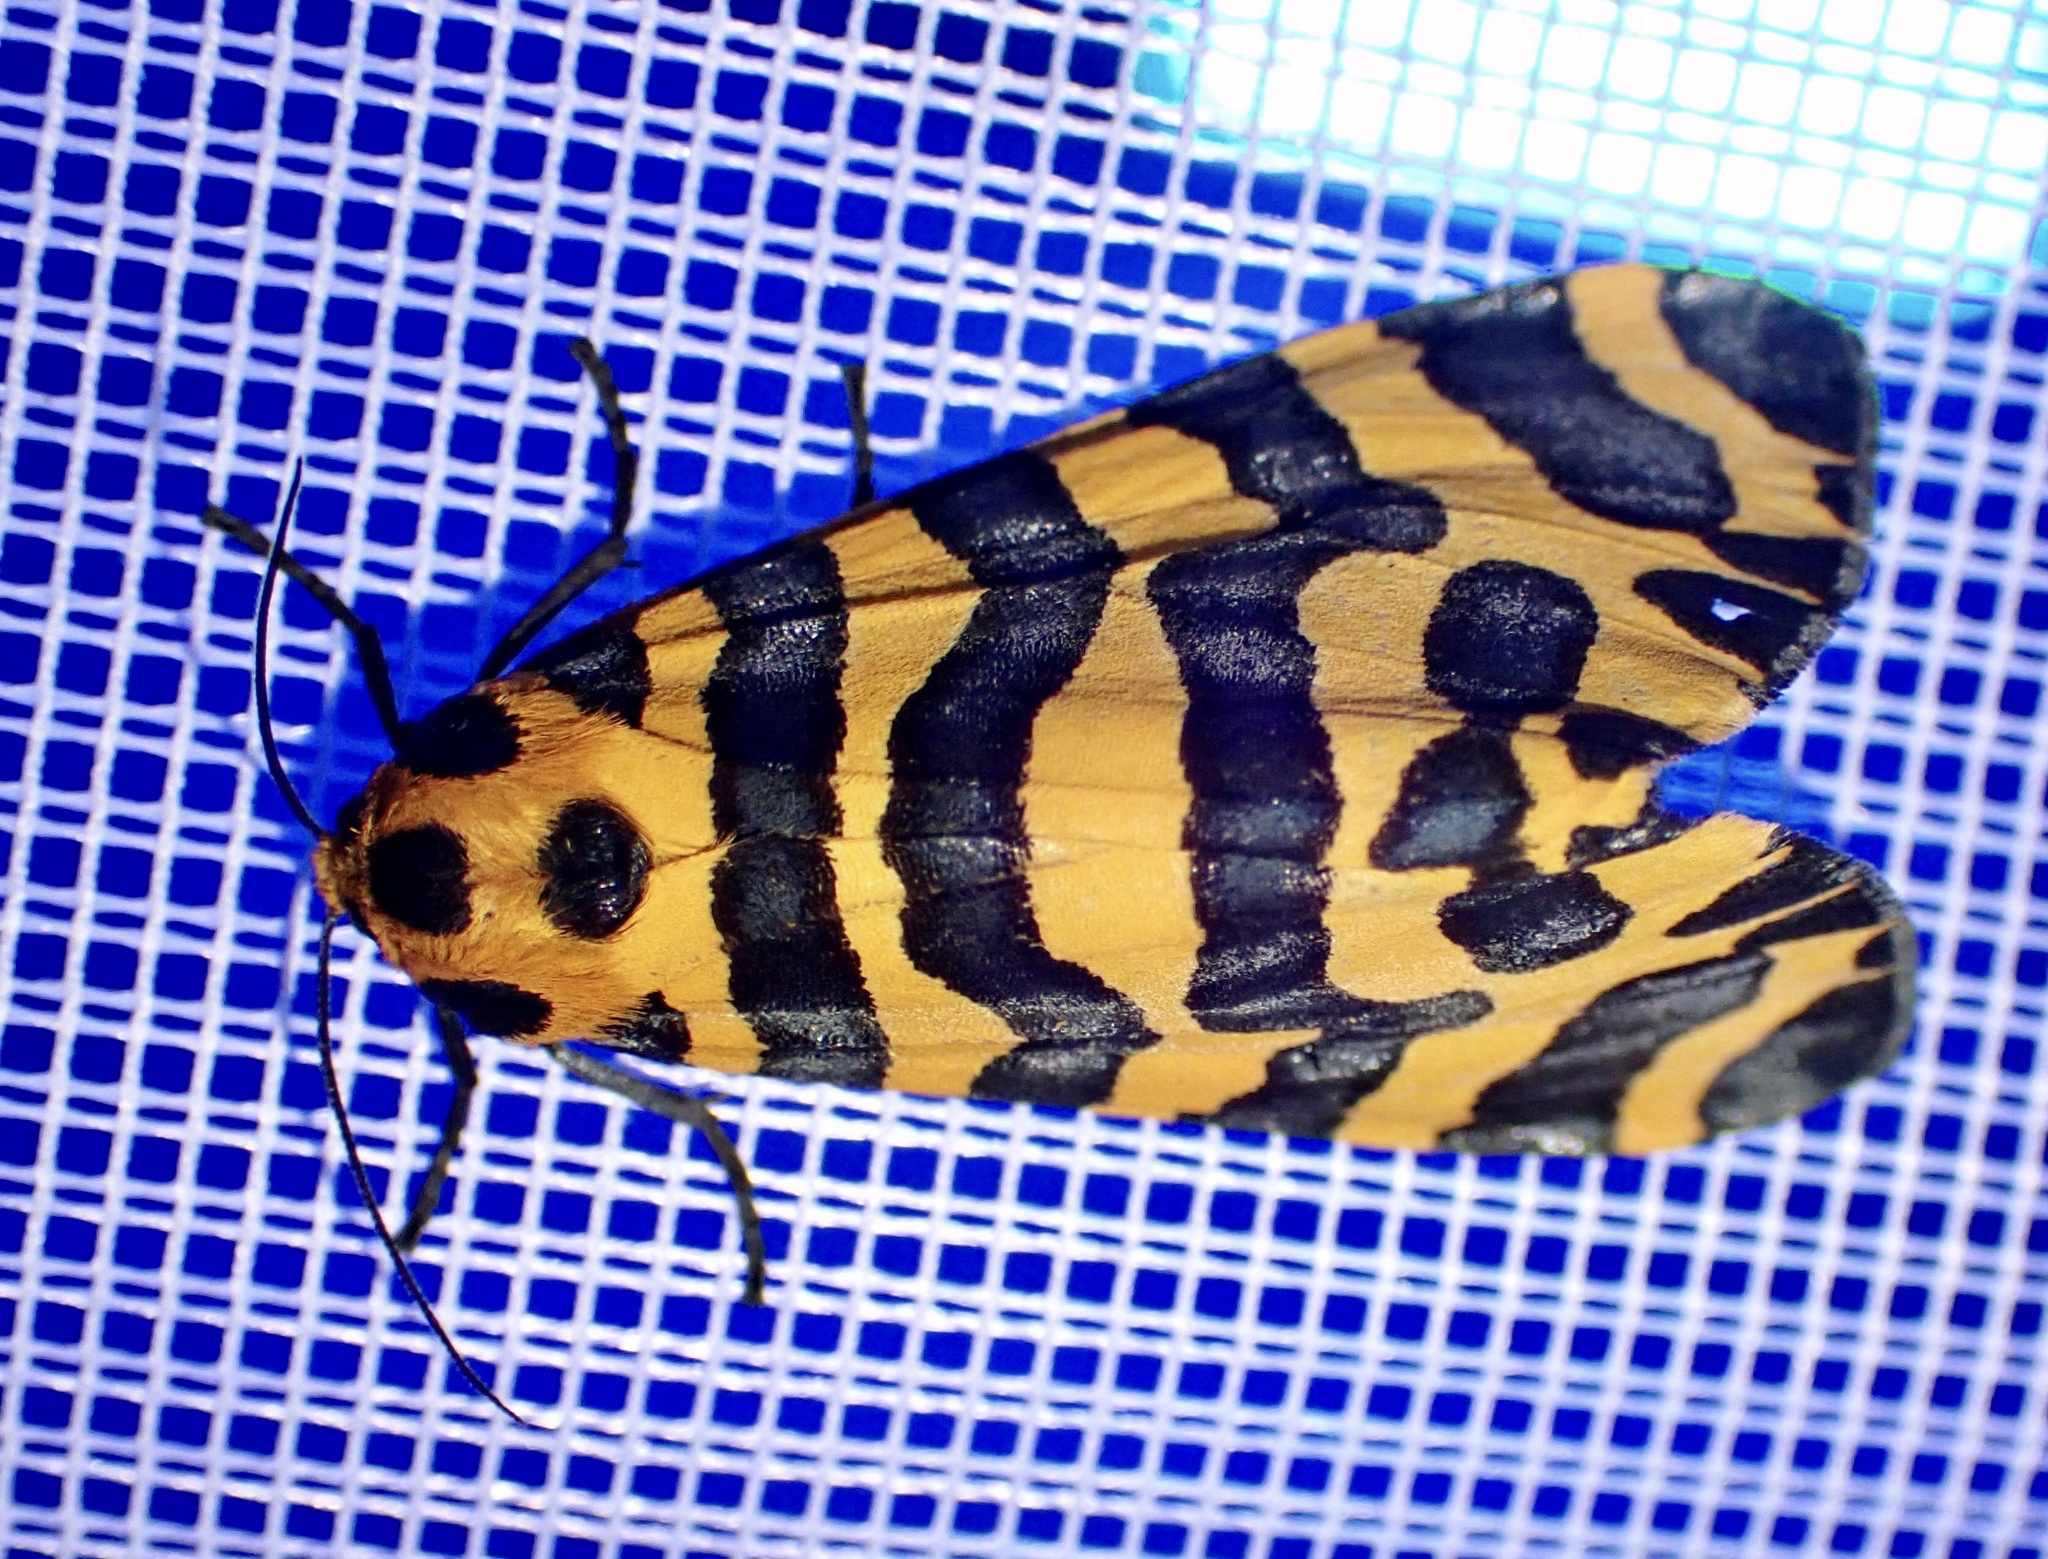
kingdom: Animalia
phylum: Arthropoda
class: Insecta
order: Lepidoptera
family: Erebidae
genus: Amphicallia
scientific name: Amphicallia bellatrix
